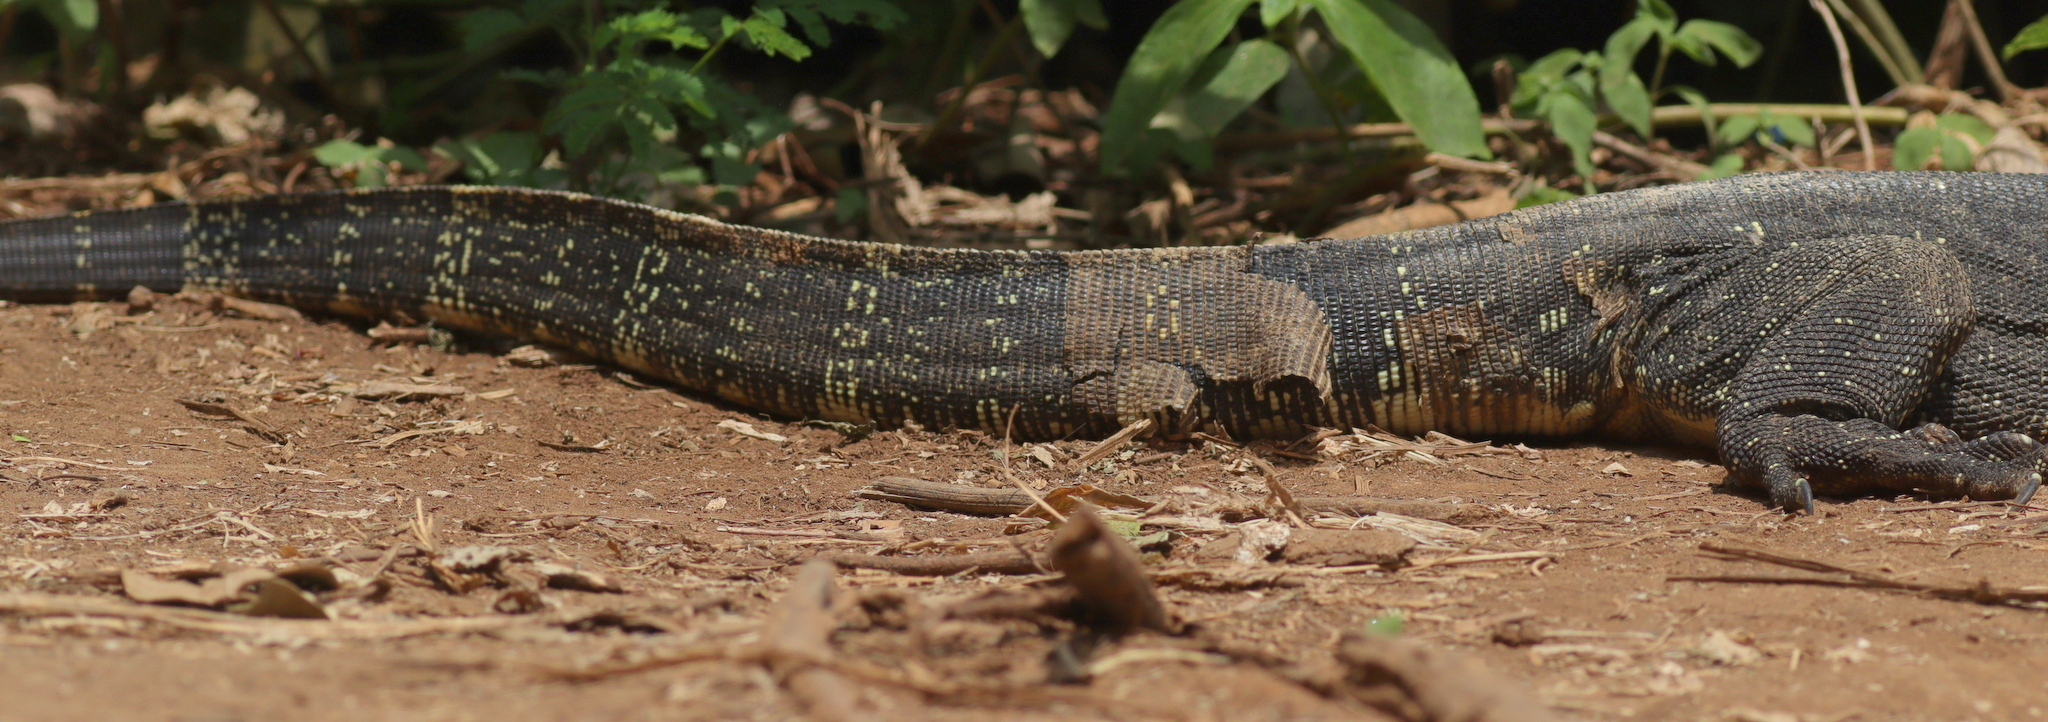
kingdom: Animalia
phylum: Chordata
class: Squamata
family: Varanidae
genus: Varanus
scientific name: Varanus salvator
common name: Common water monitor
